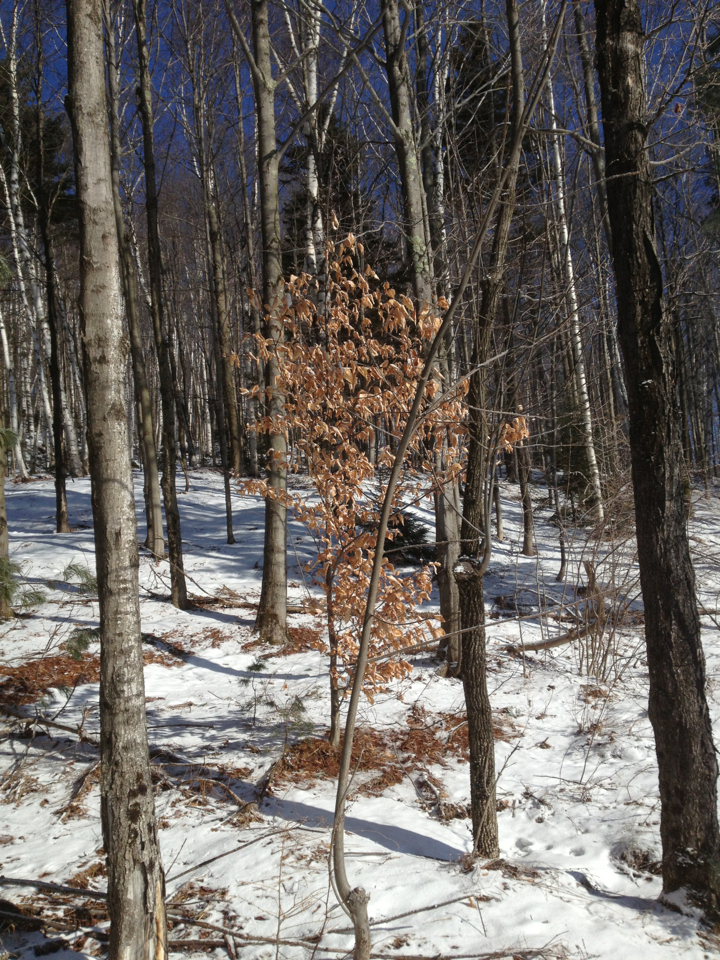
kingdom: Plantae
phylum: Tracheophyta
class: Magnoliopsida
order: Fagales
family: Fagaceae
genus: Fagus
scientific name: Fagus grandifolia
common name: American beech
